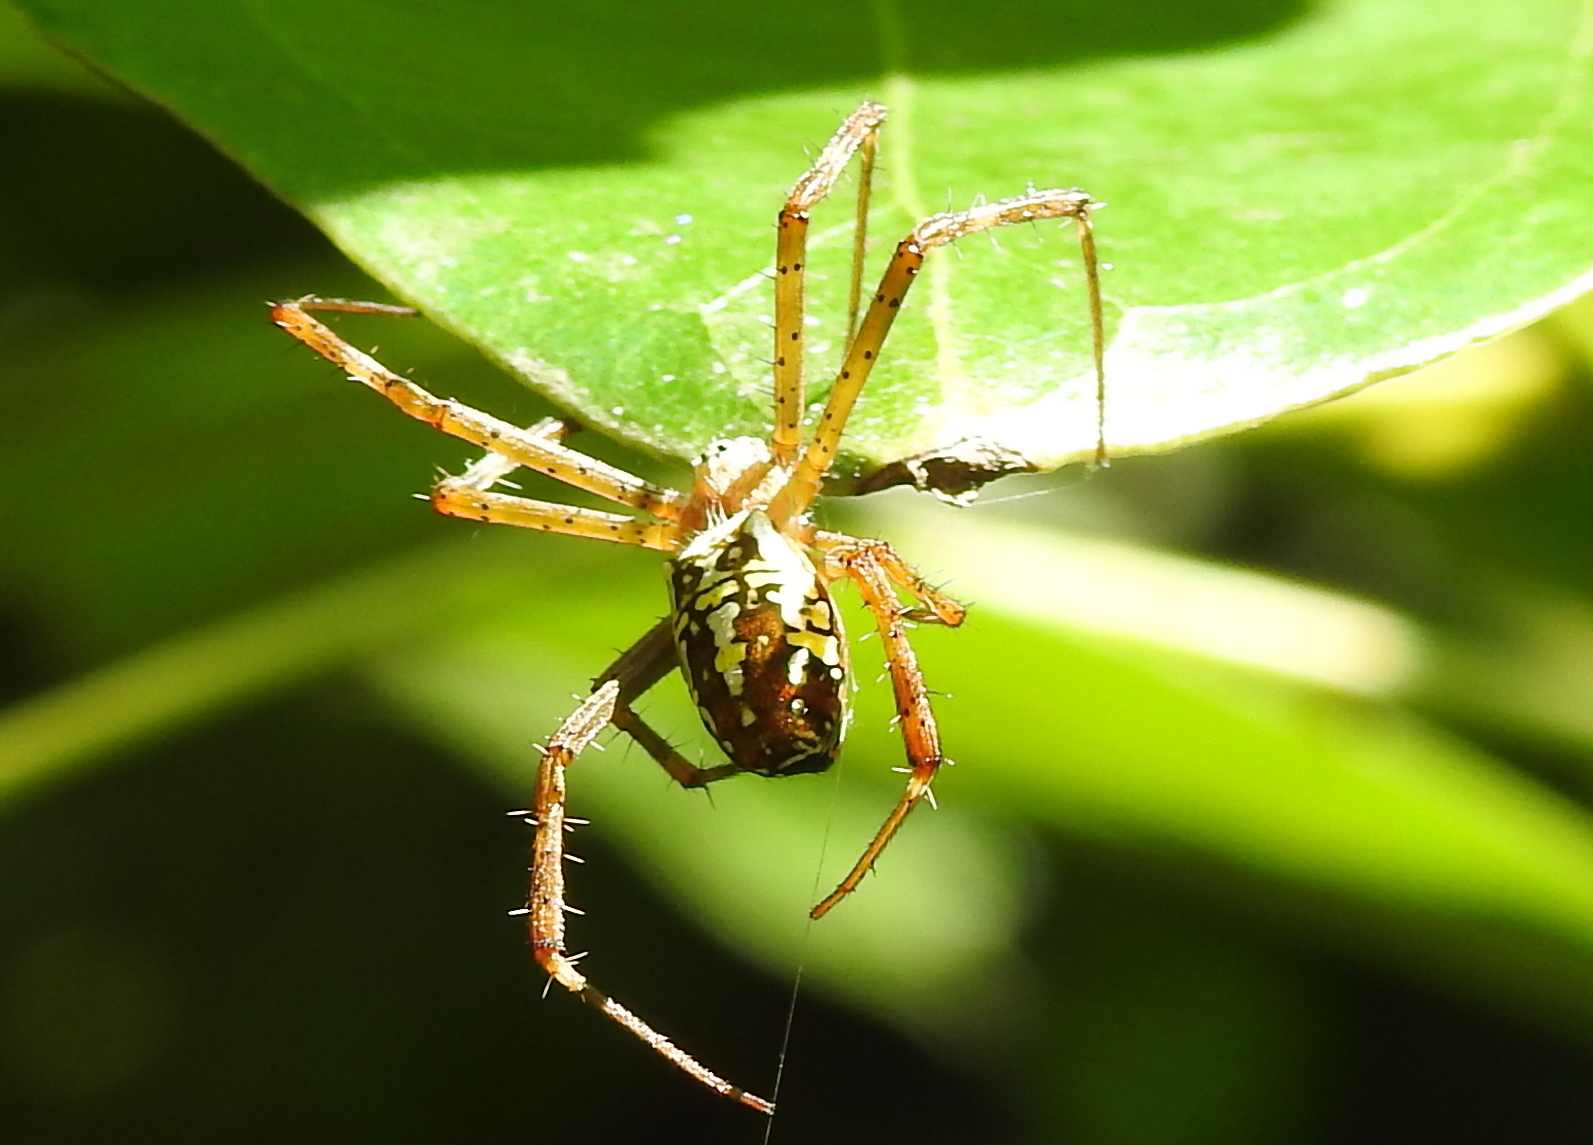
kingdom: Animalia
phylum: Arthropoda
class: Arachnida
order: Araneae
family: Araneidae
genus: Argiope
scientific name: Argiope dang
